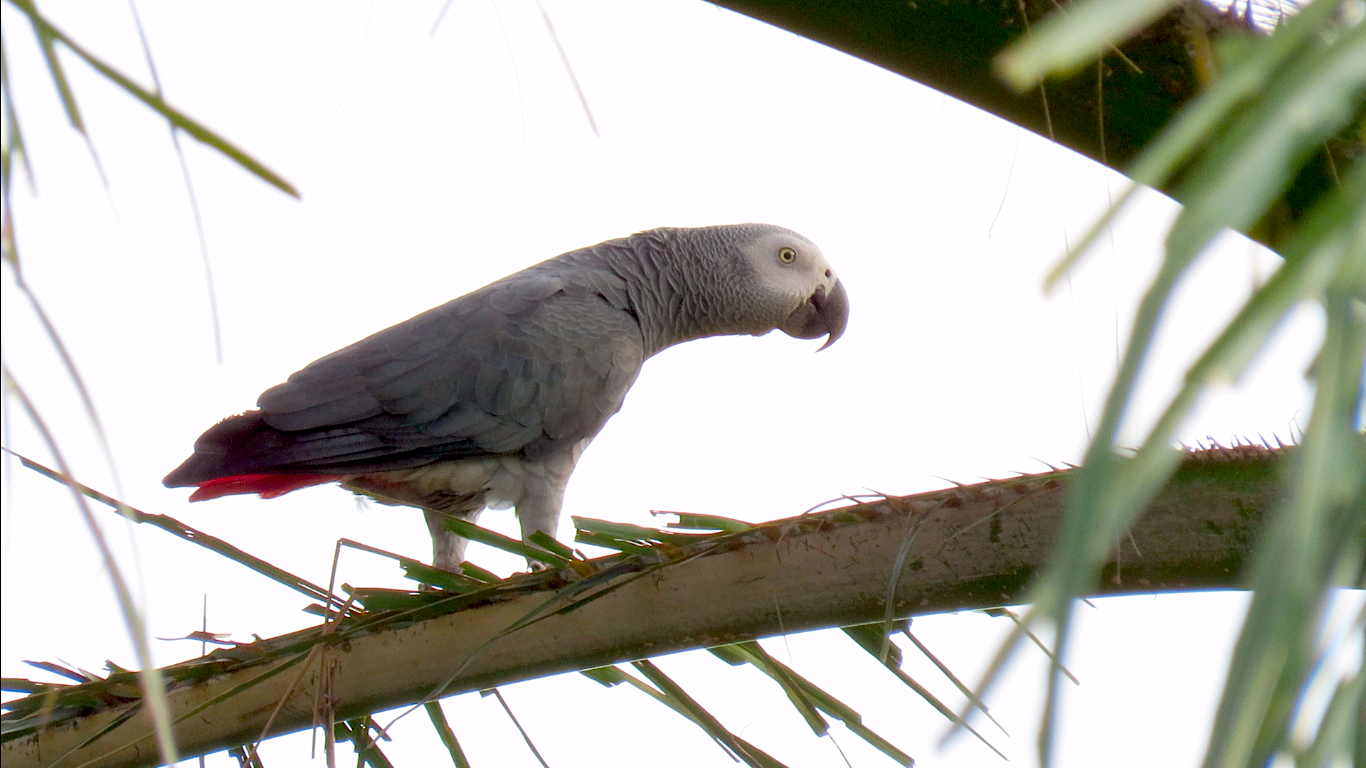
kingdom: Animalia
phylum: Chordata
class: Aves
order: Psittaciformes
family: Psittacidae
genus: Psittacus
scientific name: Psittacus erithacus
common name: Grey parrot
